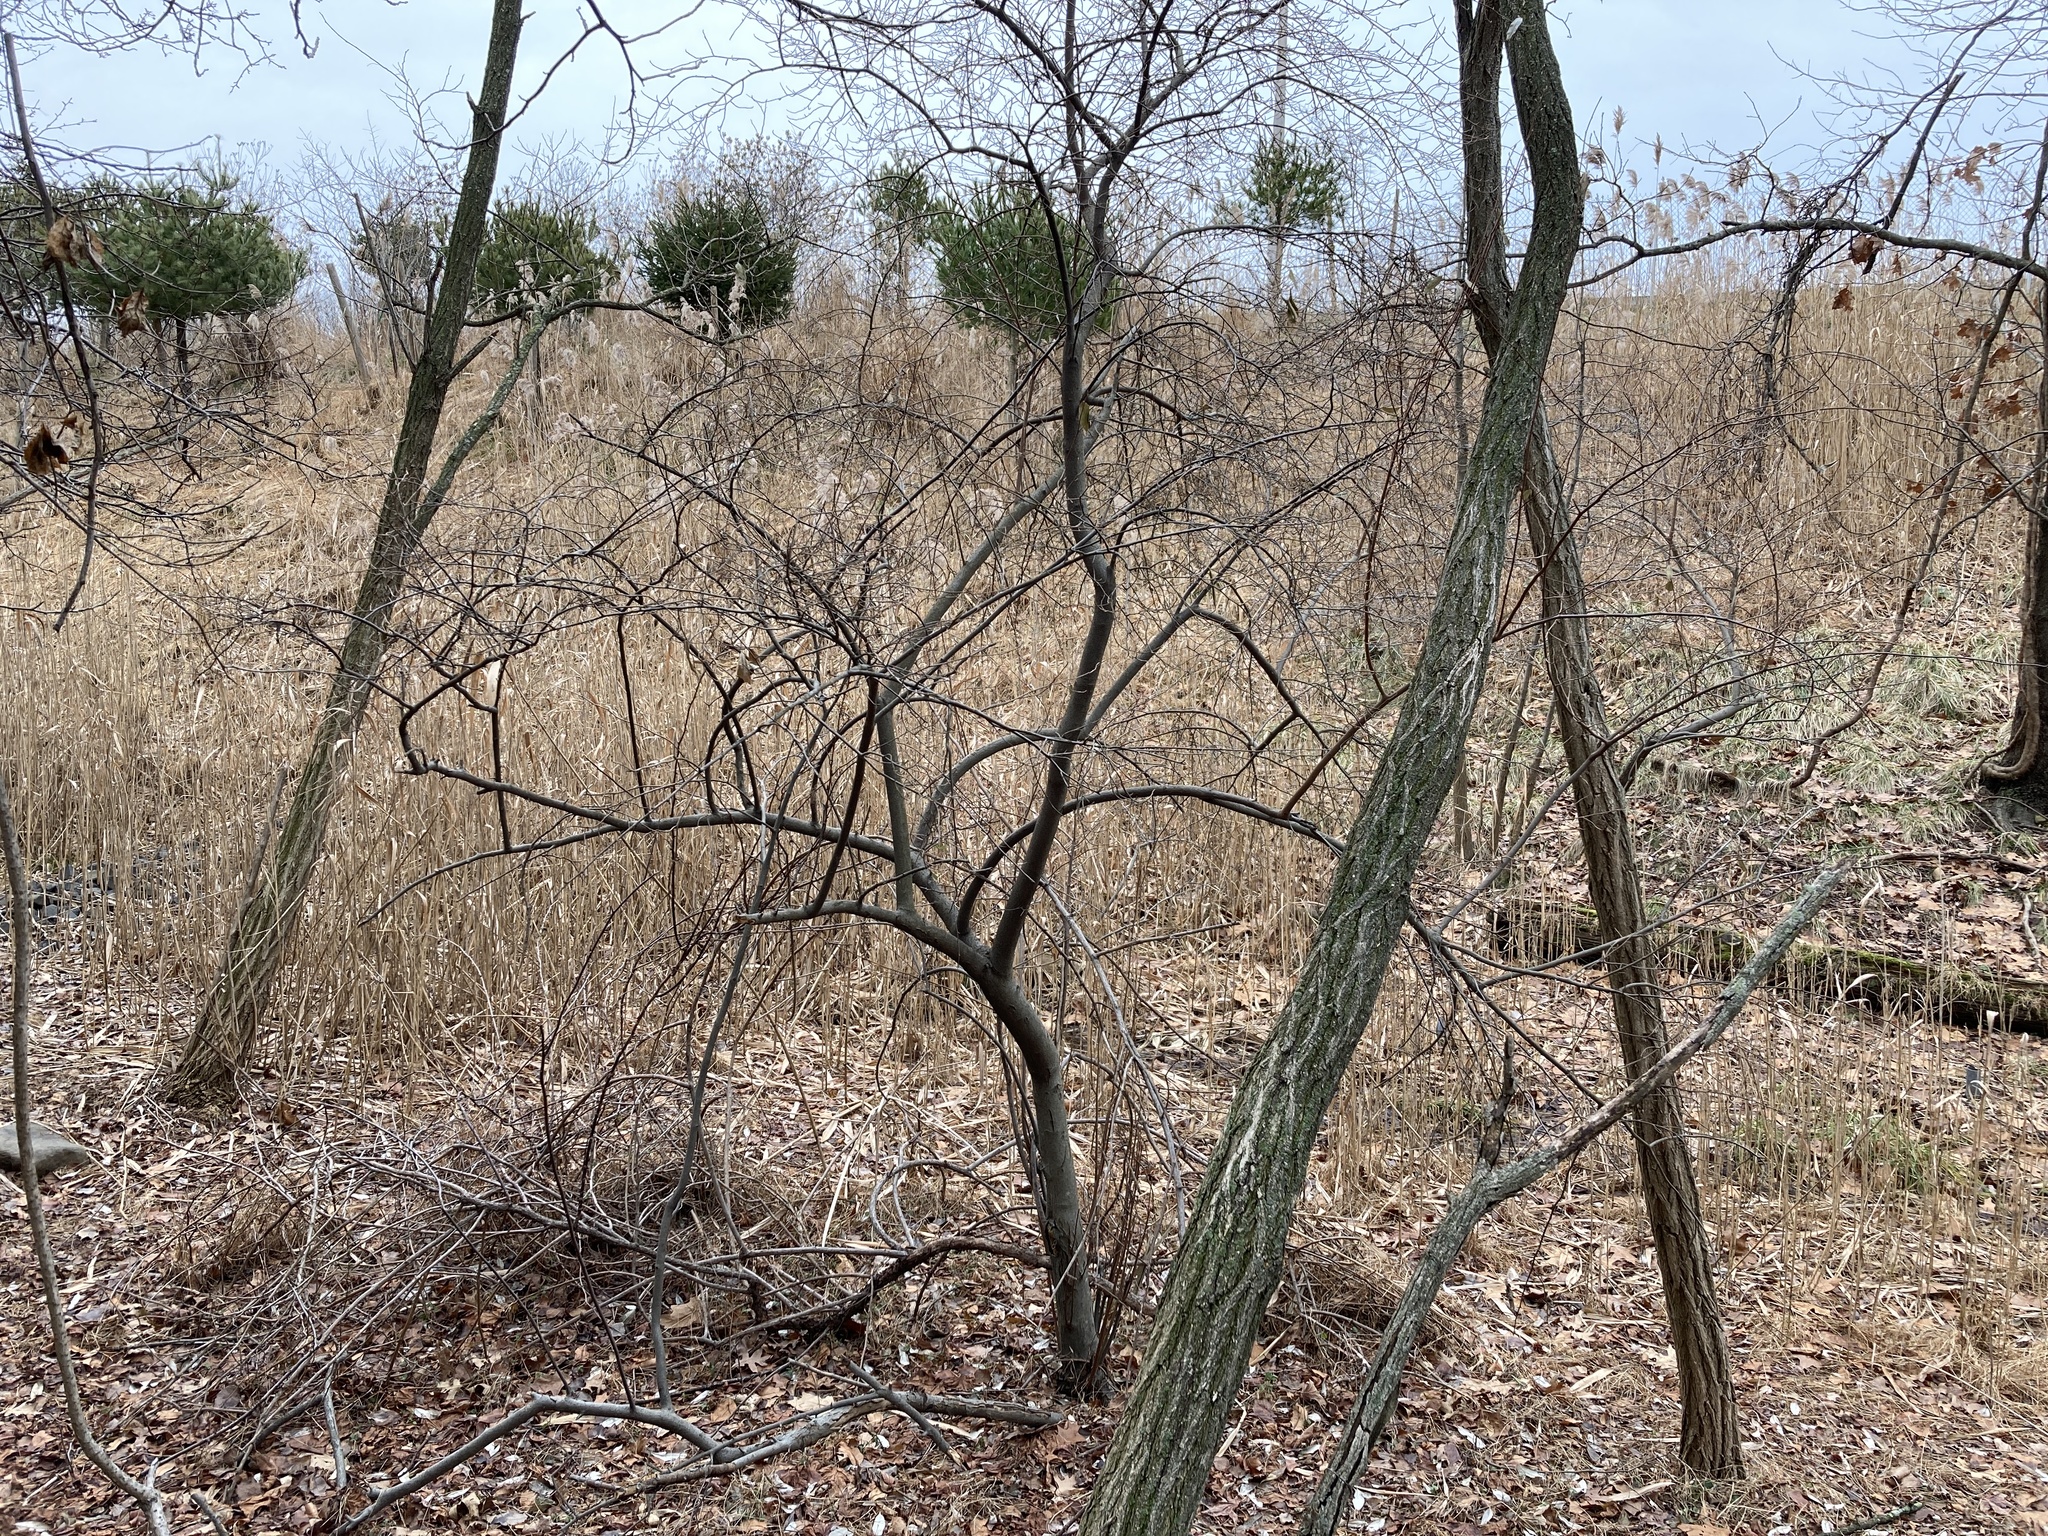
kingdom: Plantae
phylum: Tracheophyta
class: Magnoliopsida
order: Rosales
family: Elaeagnaceae
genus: Elaeagnus
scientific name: Elaeagnus umbellata
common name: Autumn olive
